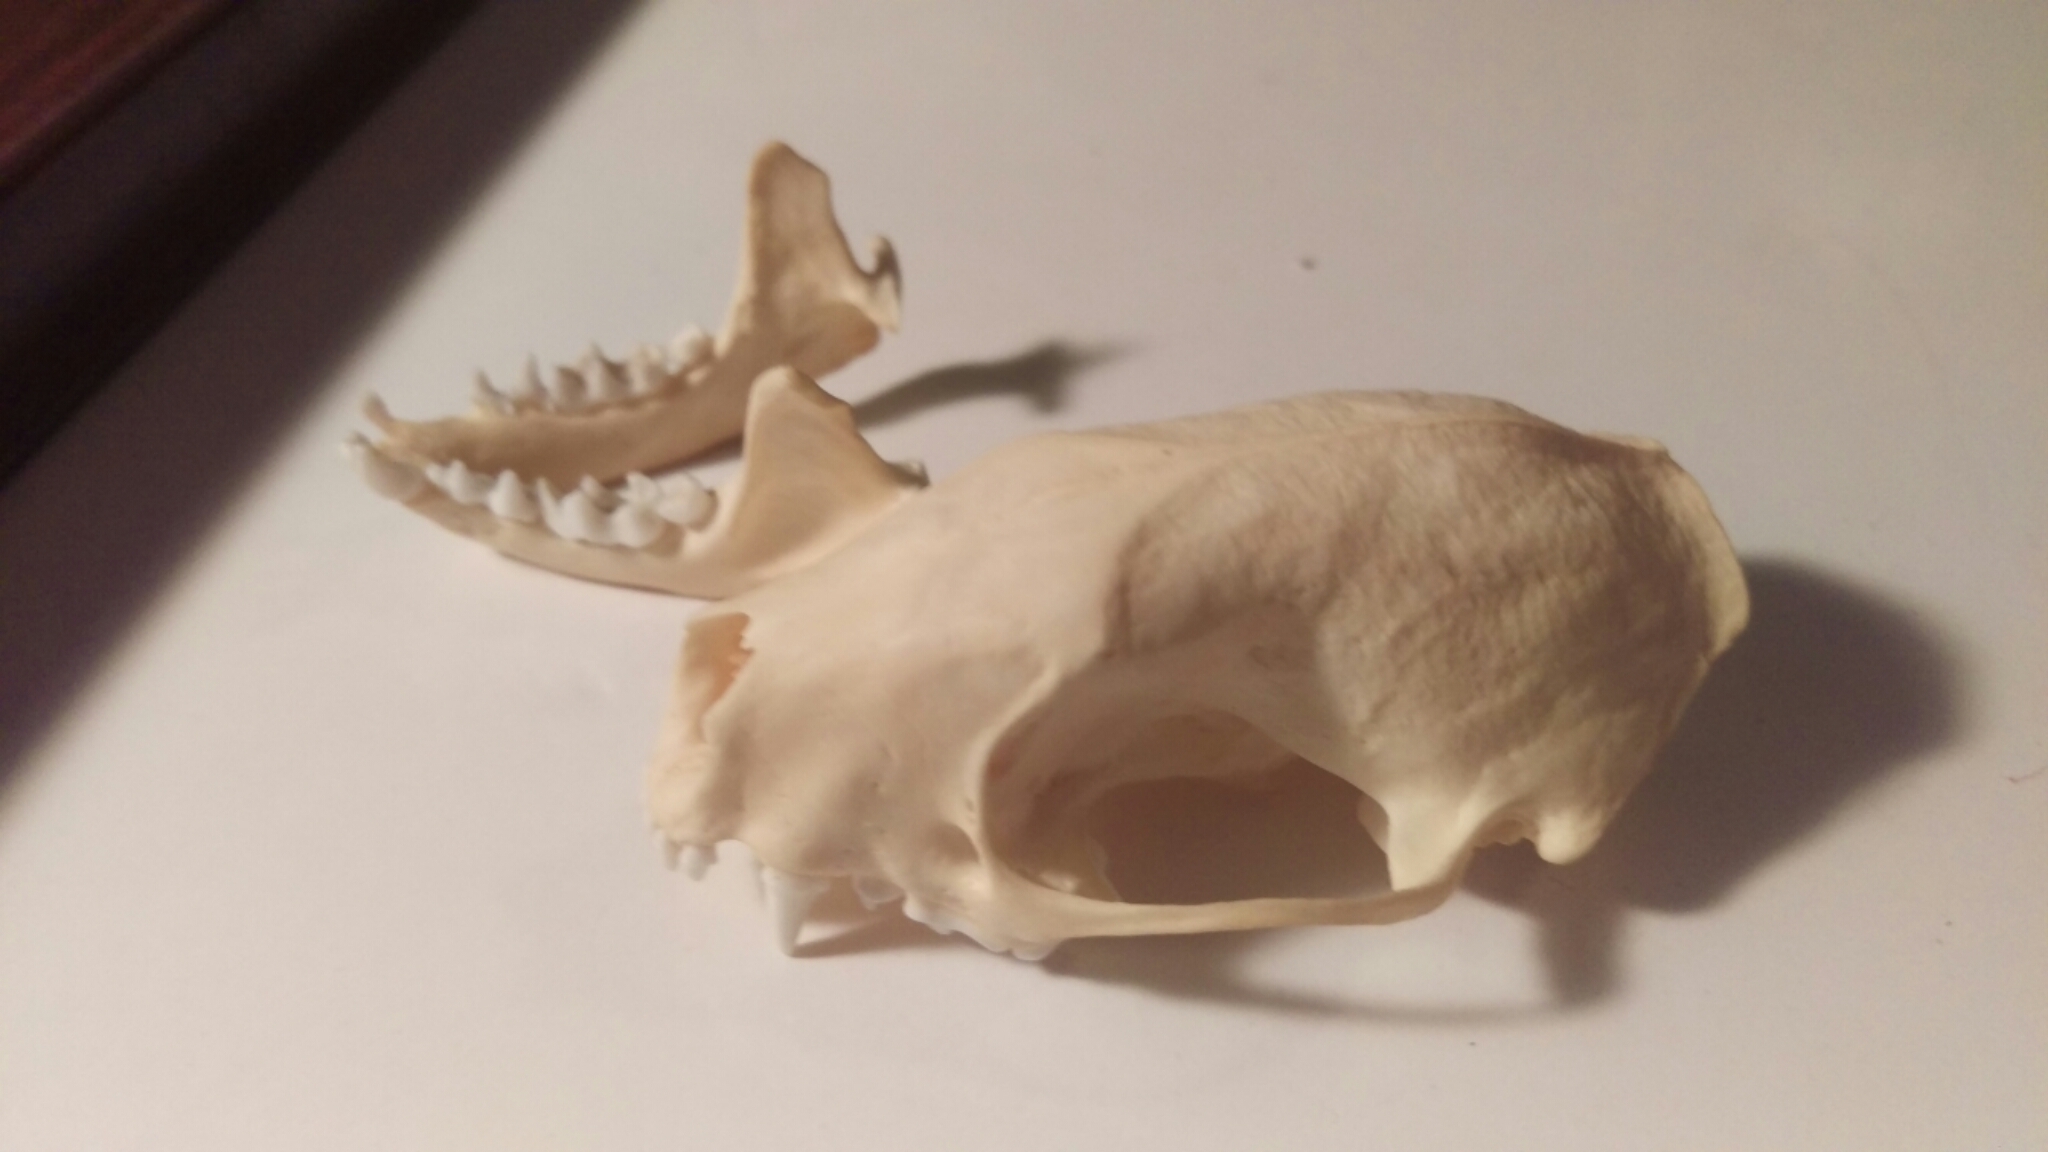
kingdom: Animalia
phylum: Chordata
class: Mammalia
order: Carnivora
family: Mephitidae
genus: Mephitis
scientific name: Mephitis mephitis
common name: Striped skunk
